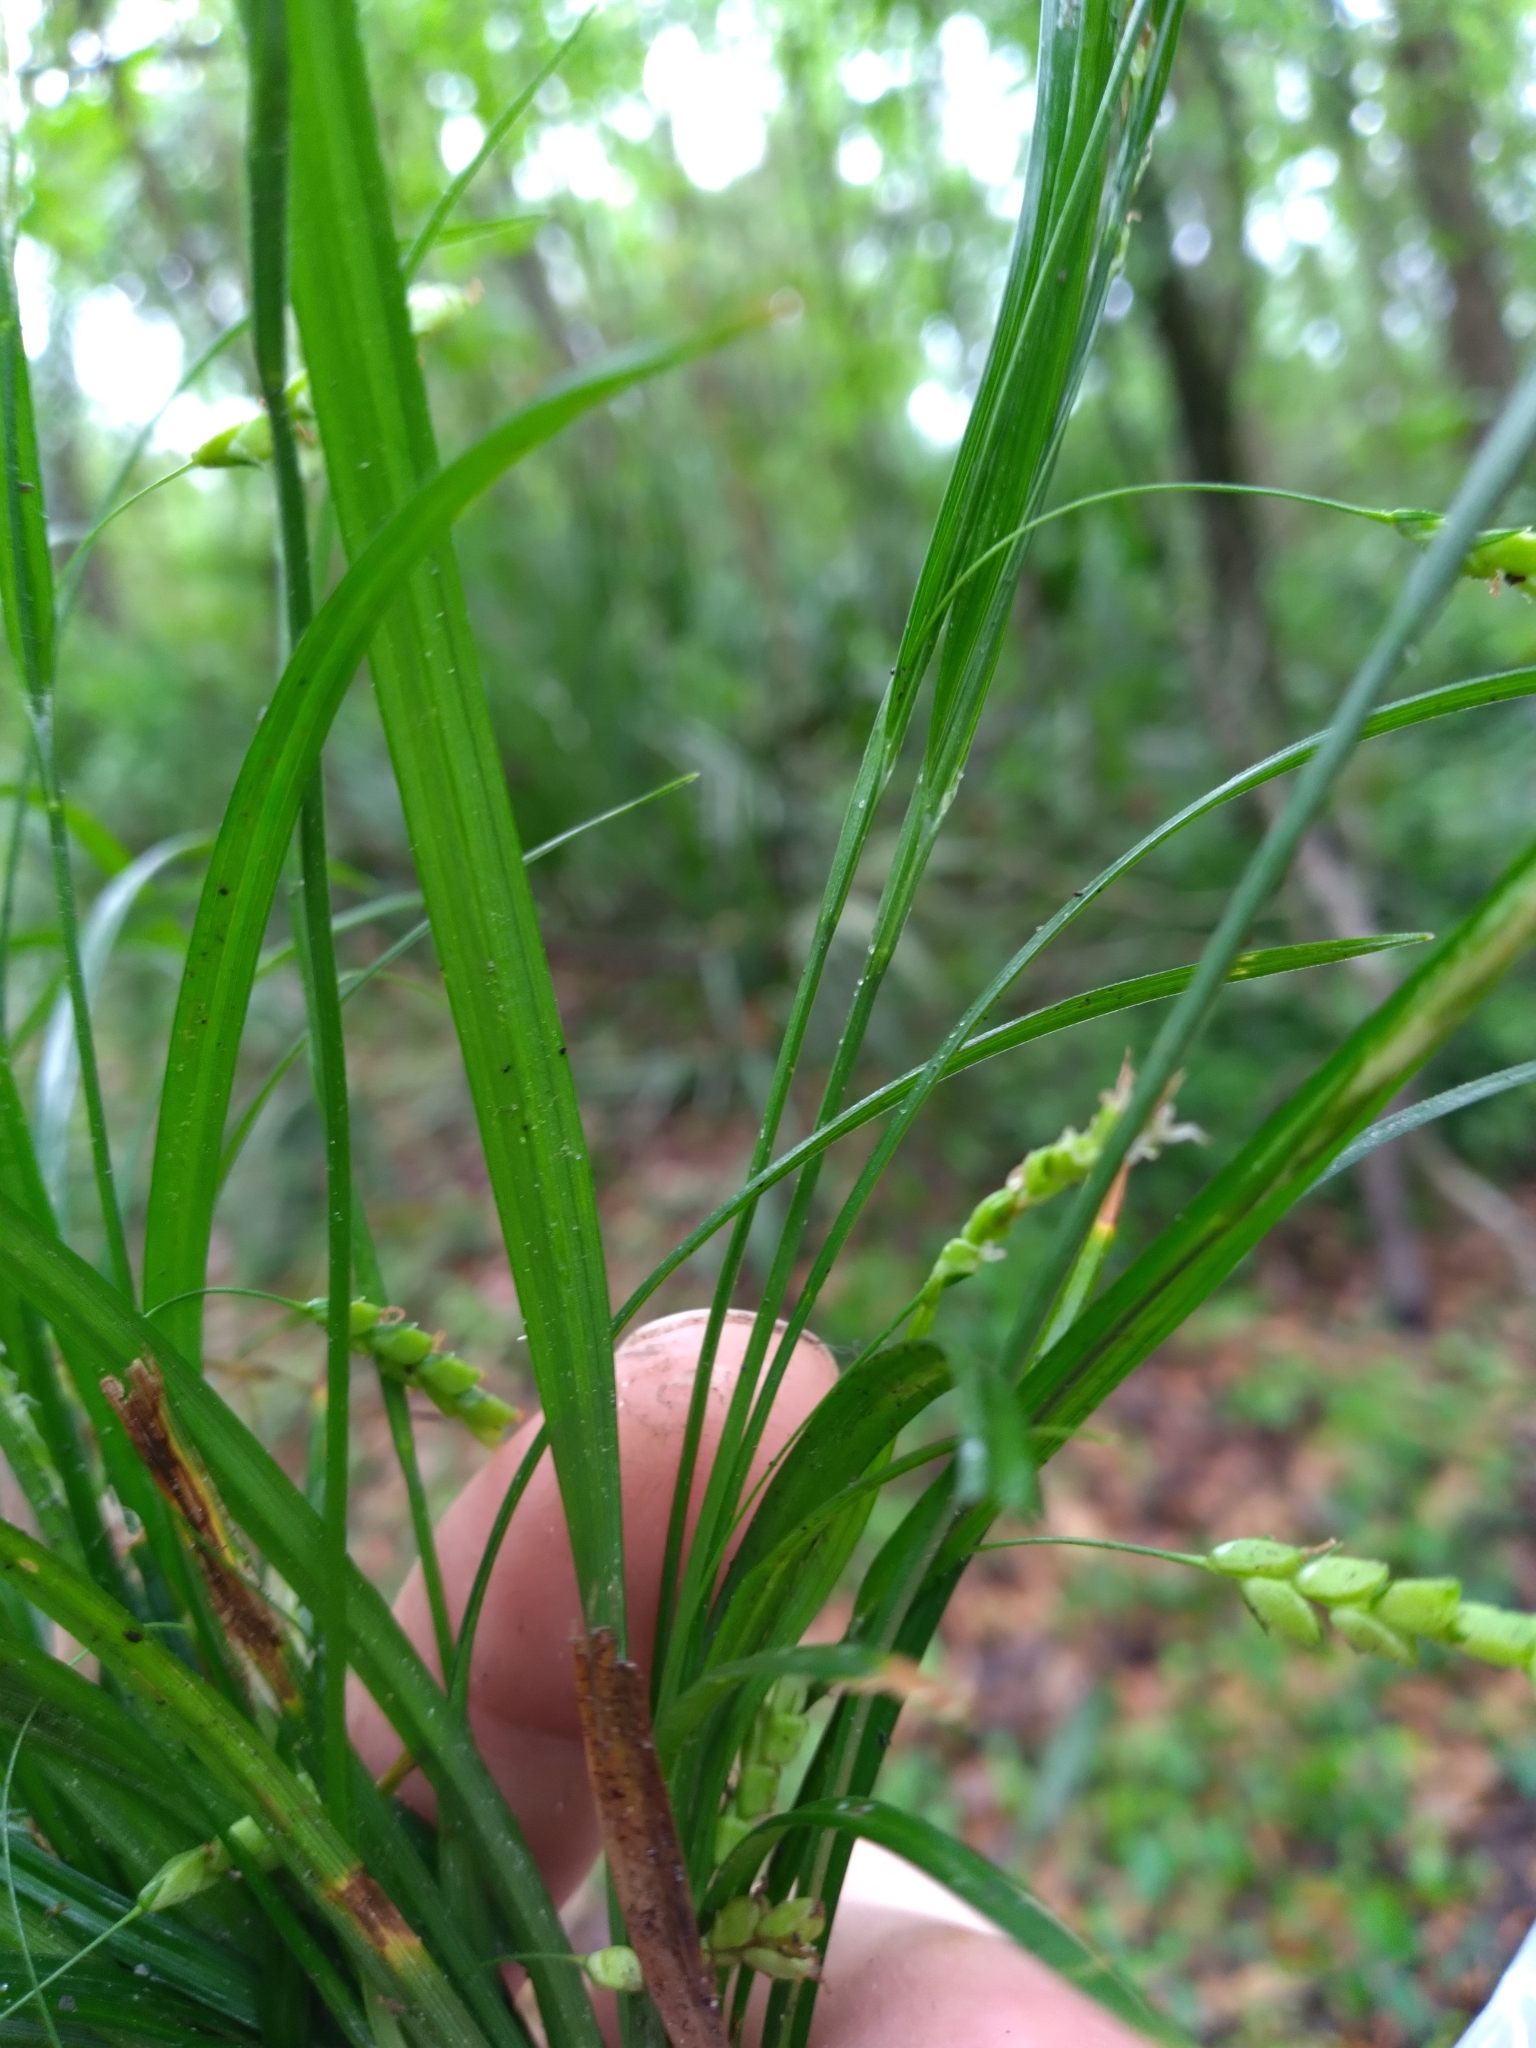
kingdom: Plantae
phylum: Tracheophyta
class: Liliopsida
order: Poales
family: Cyperaceae
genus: Carex
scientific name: Carex digitalis
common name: Slender wood sedge
